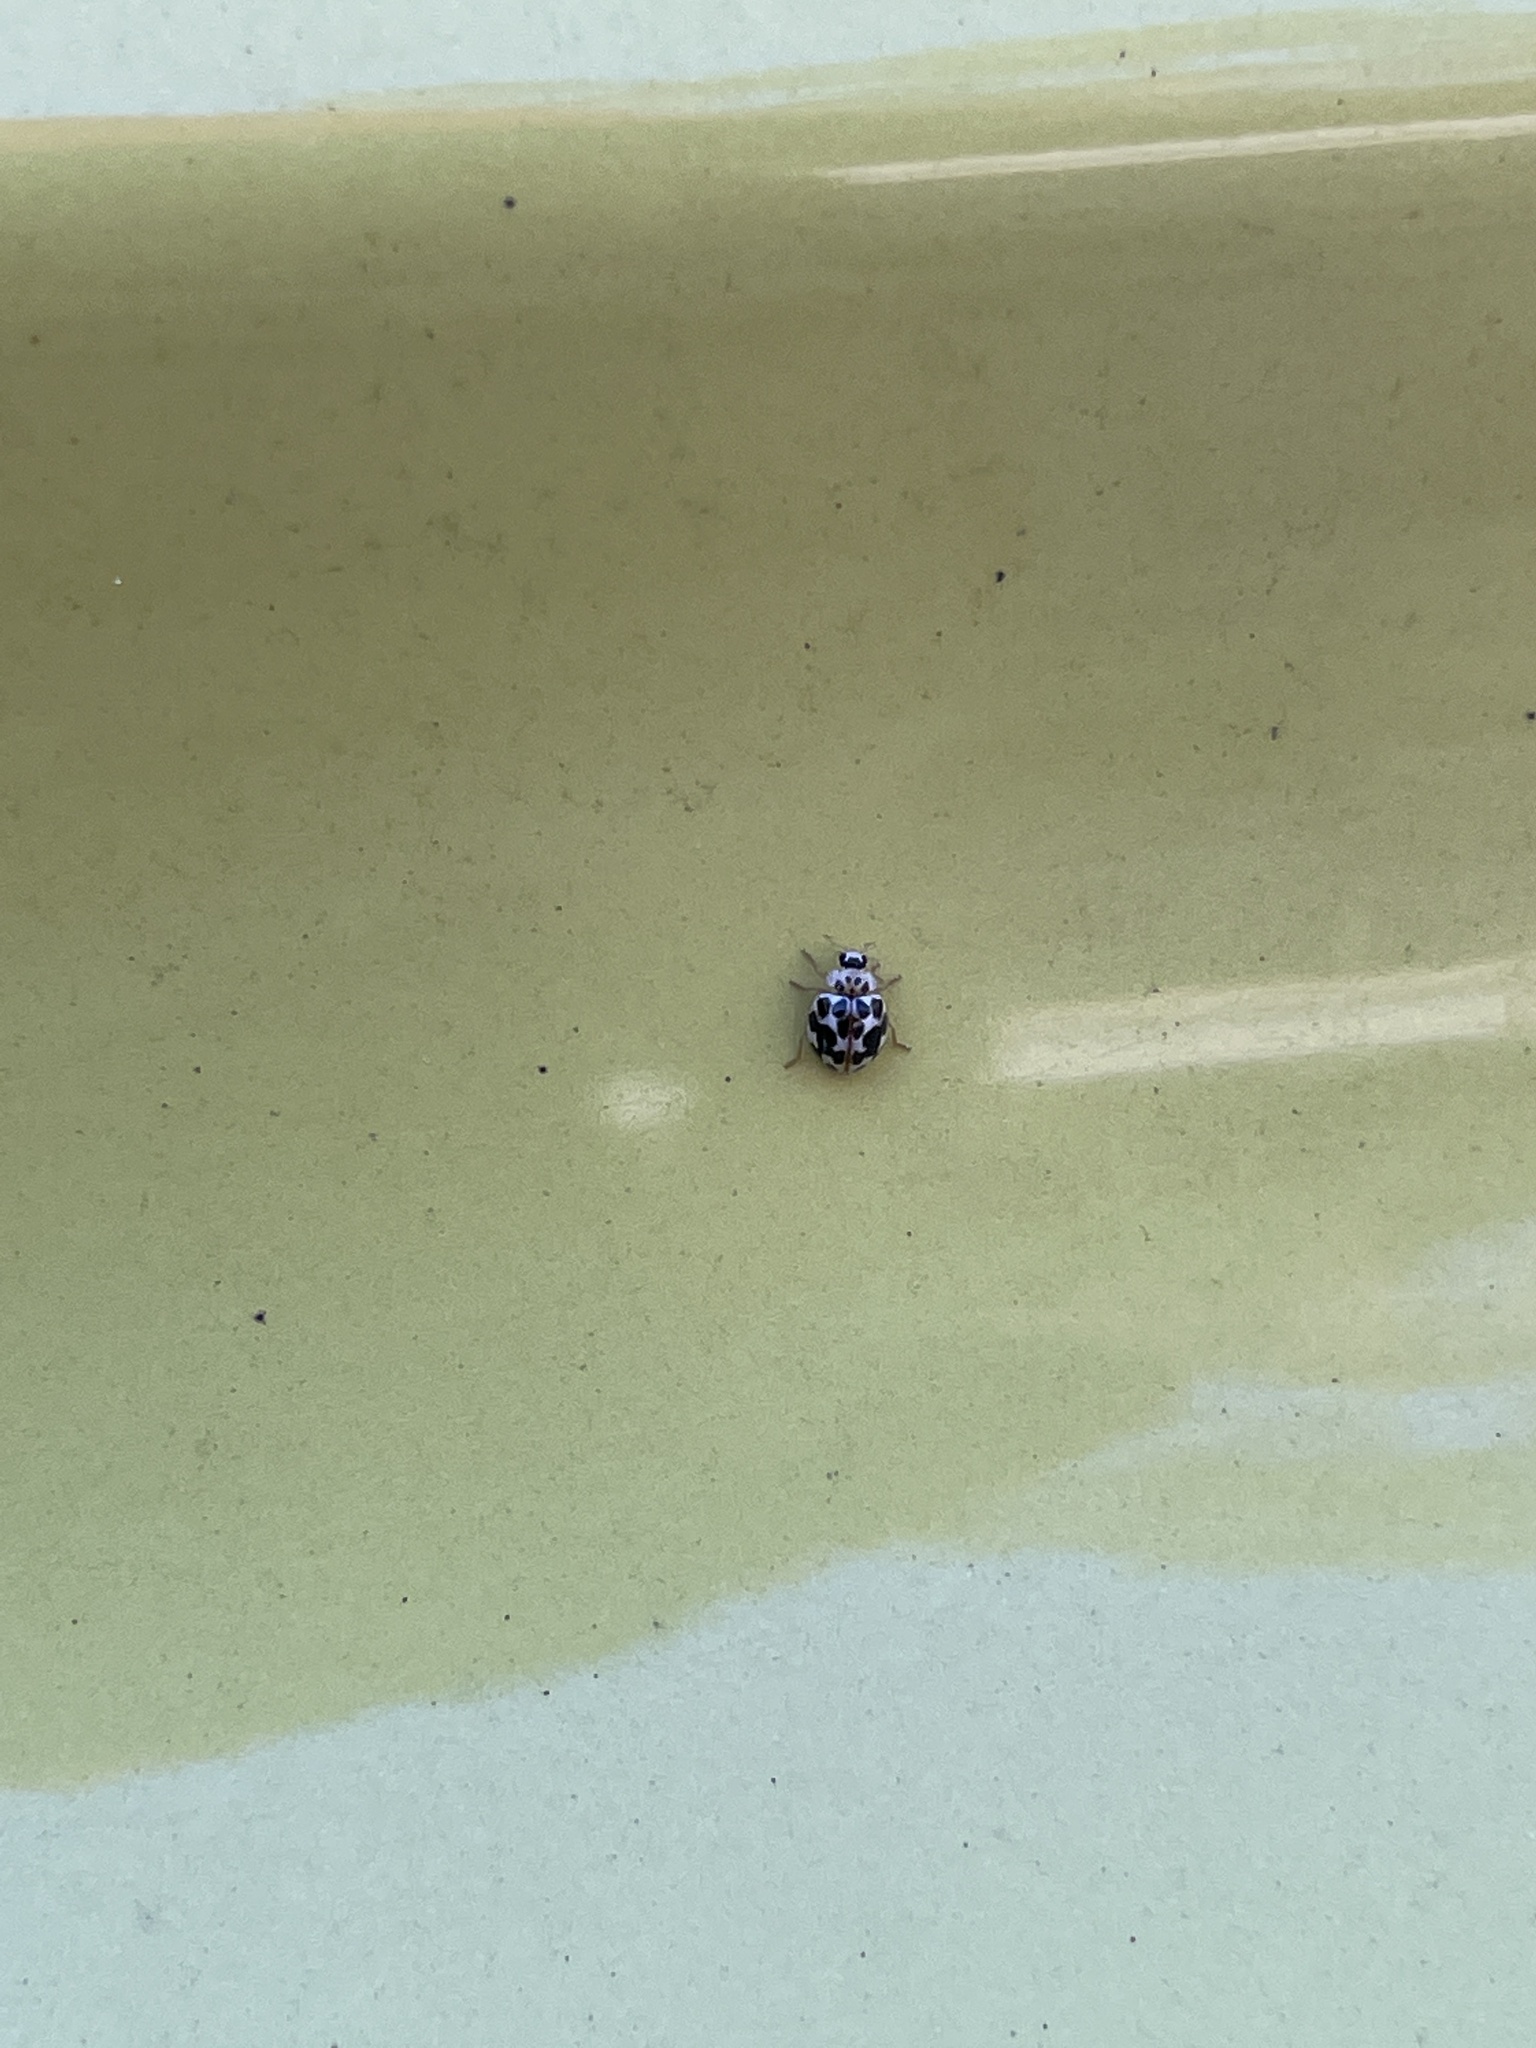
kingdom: Animalia
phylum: Arthropoda
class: Insecta
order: Coleoptera
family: Coccinellidae
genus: Psyllobora
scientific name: Psyllobora vigintimaculata
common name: Ladybird beetle
